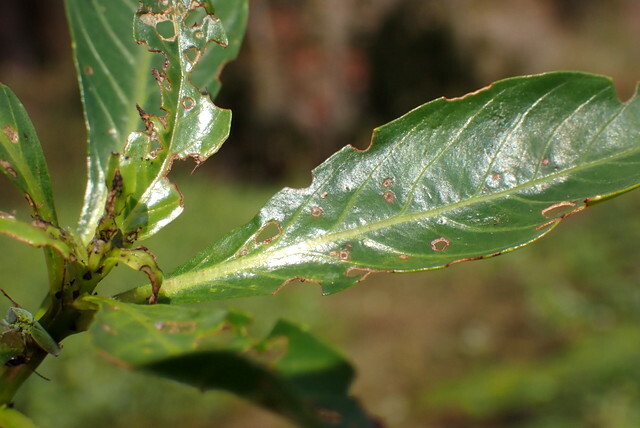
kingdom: Animalia
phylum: Arthropoda
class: Insecta
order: Coleoptera
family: Chrysomelidae
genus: Lysathia
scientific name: Lysathia ludoviciana
